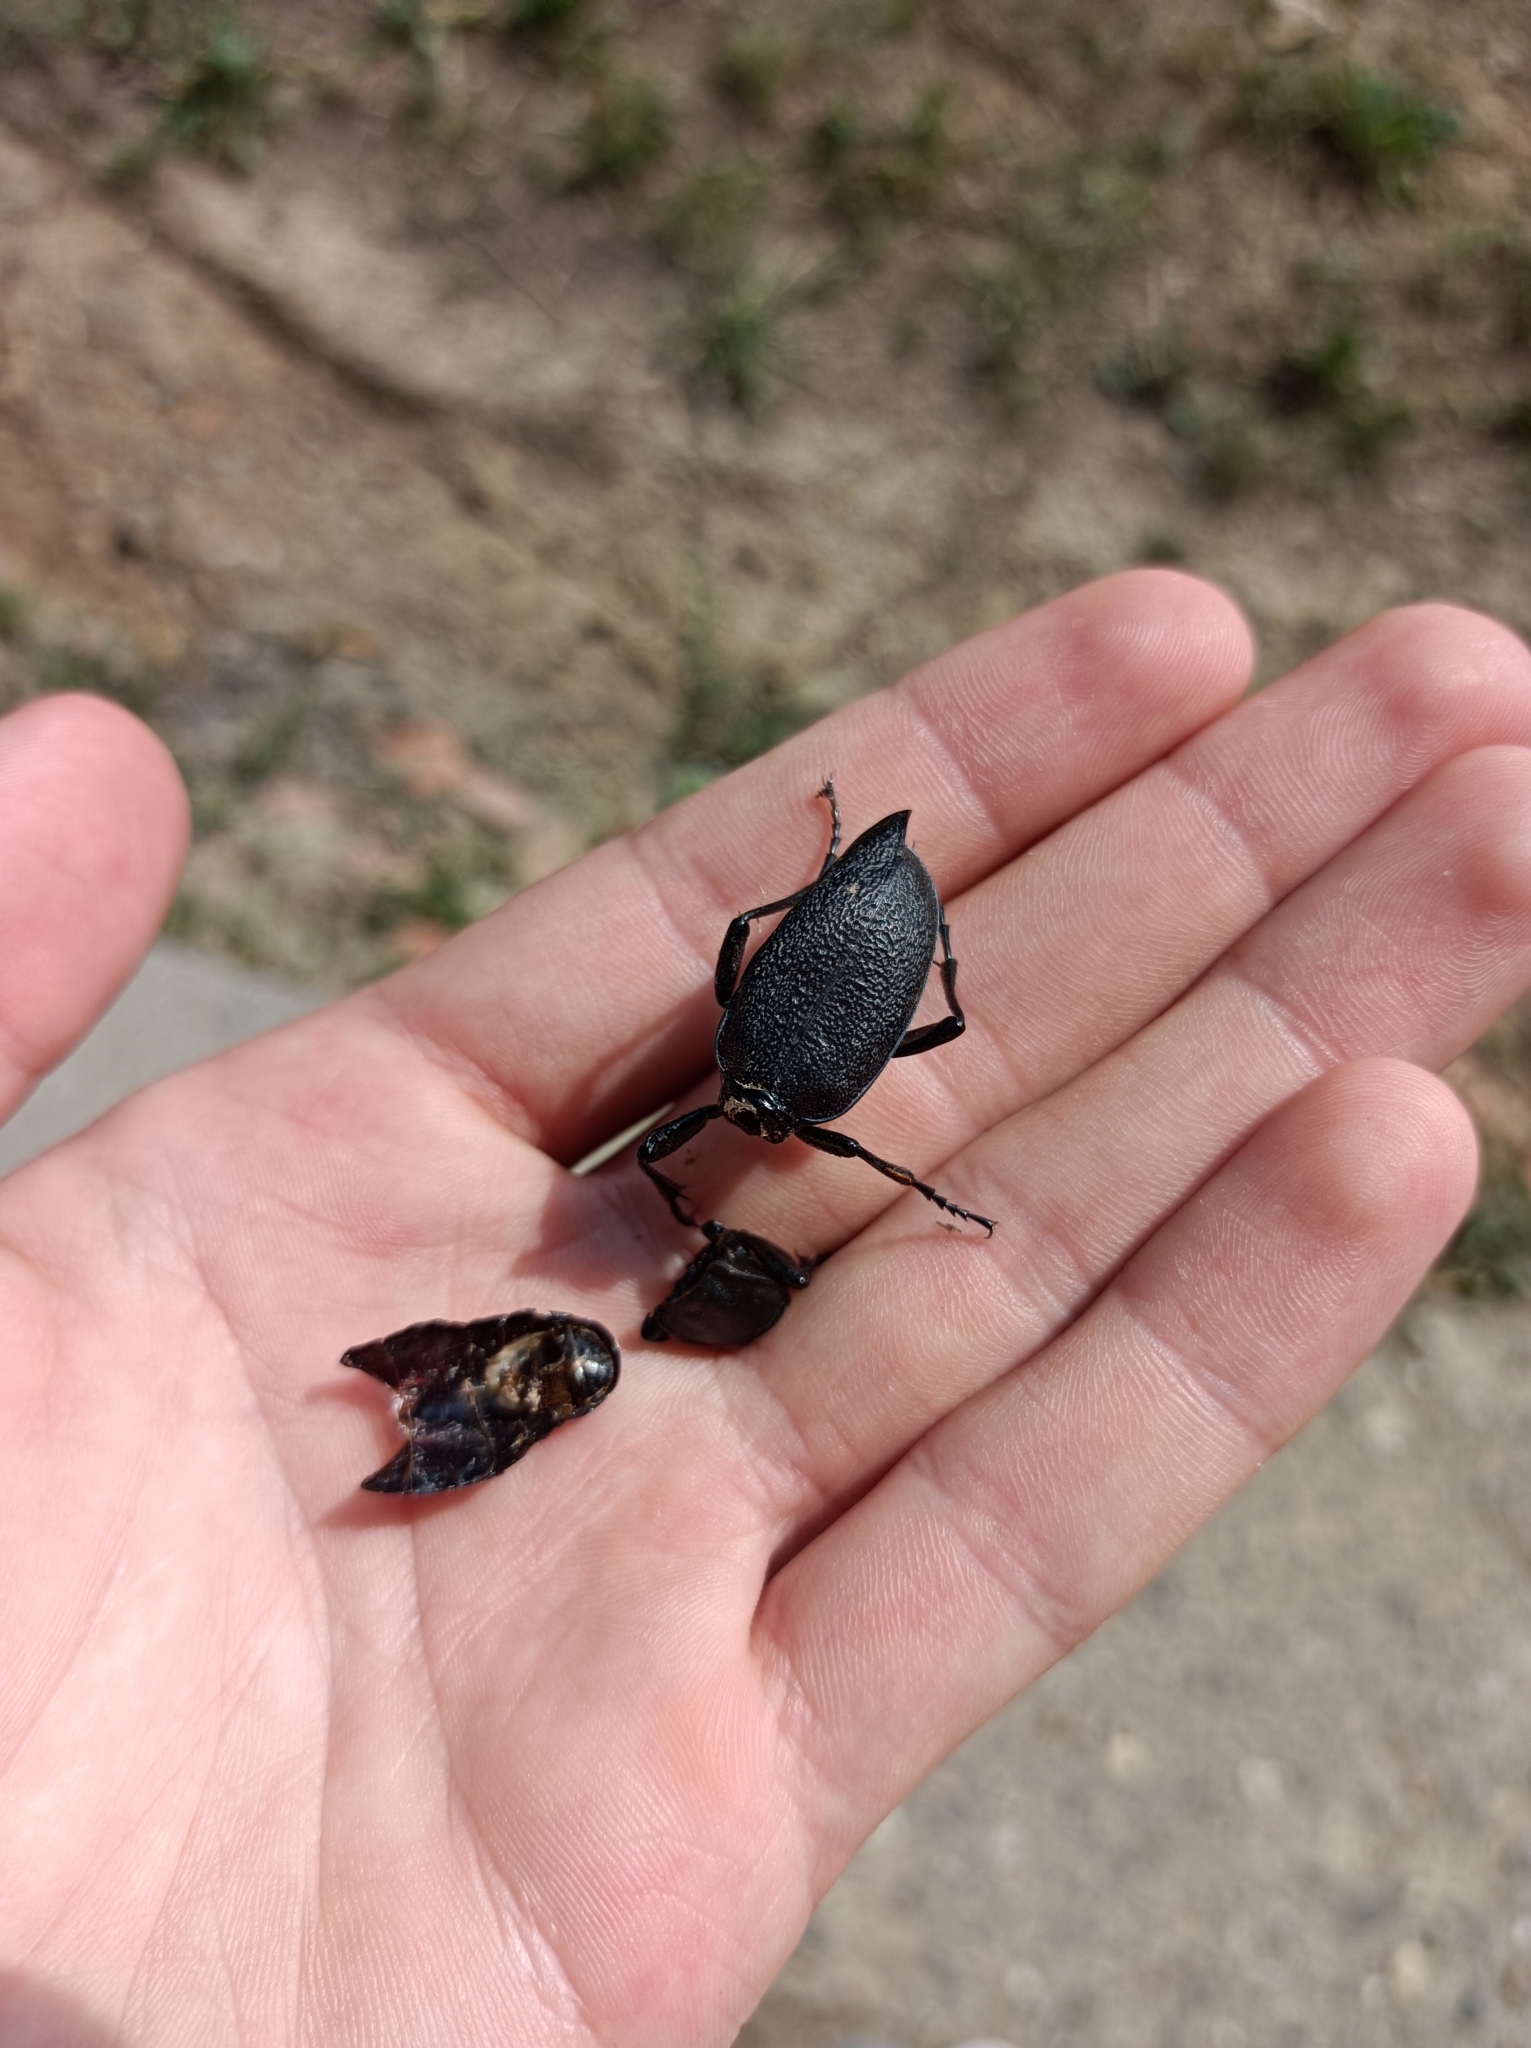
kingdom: Animalia
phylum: Arthropoda
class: Insecta
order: Coleoptera
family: Carabidae
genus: Carabus
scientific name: Carabus coriaceus
